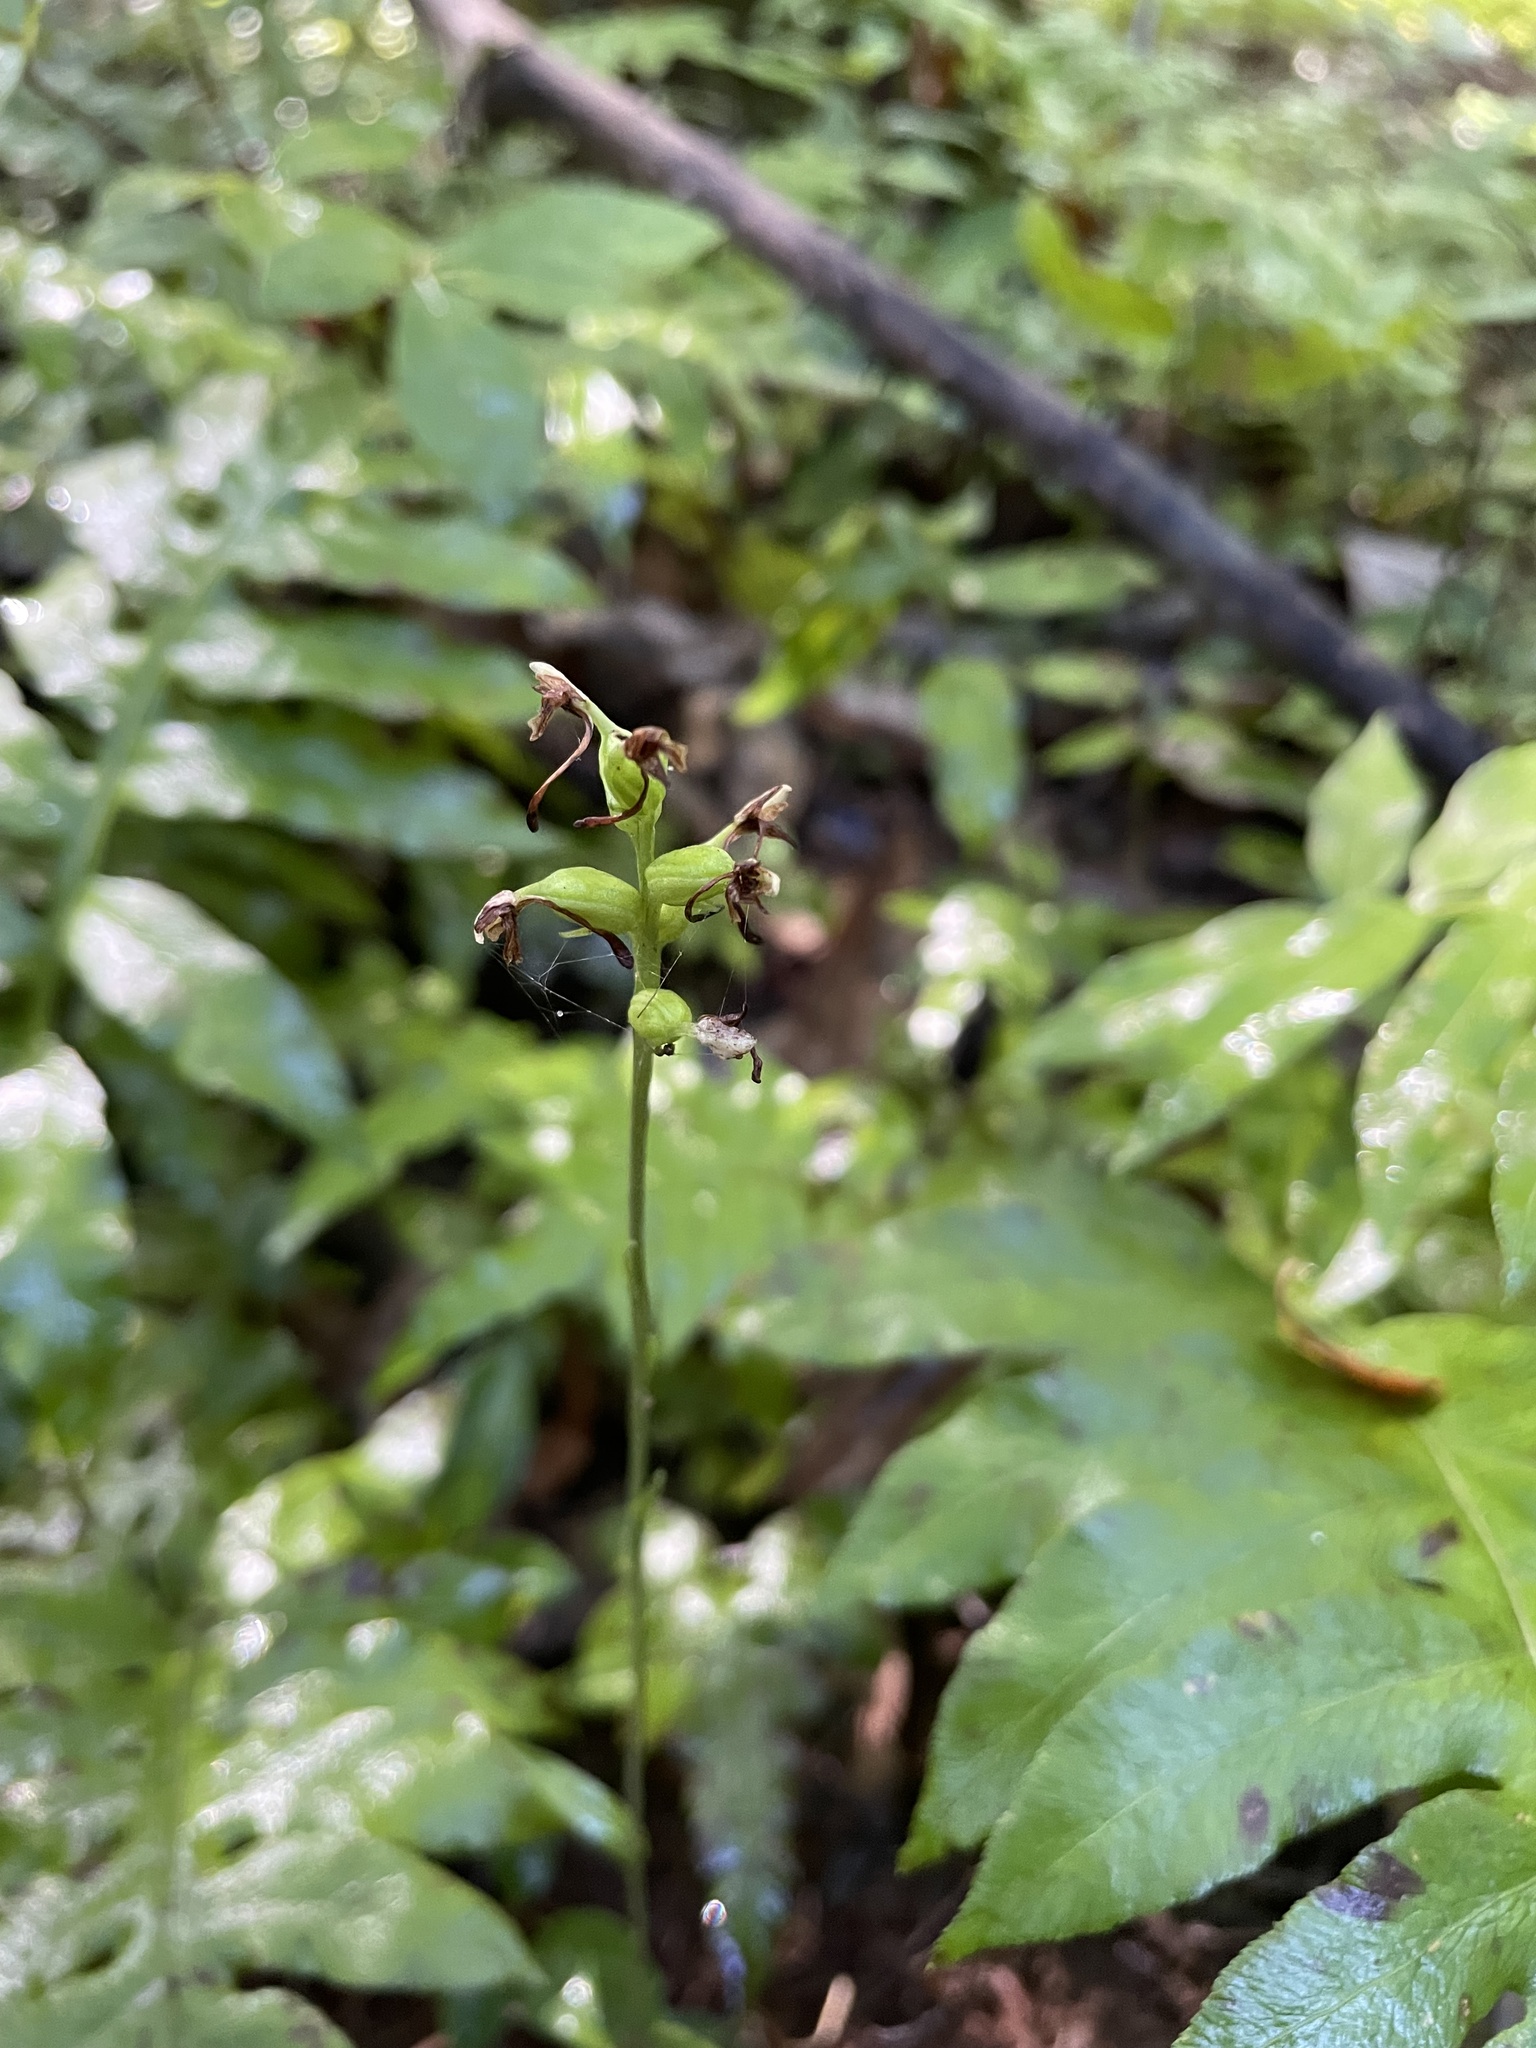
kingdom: Plantae
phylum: Tracheophyta
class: Liliopsida
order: Asparagales
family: Orchidaceae
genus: Platanthera
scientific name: Platanthera clavellata
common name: Club-spur orchid
